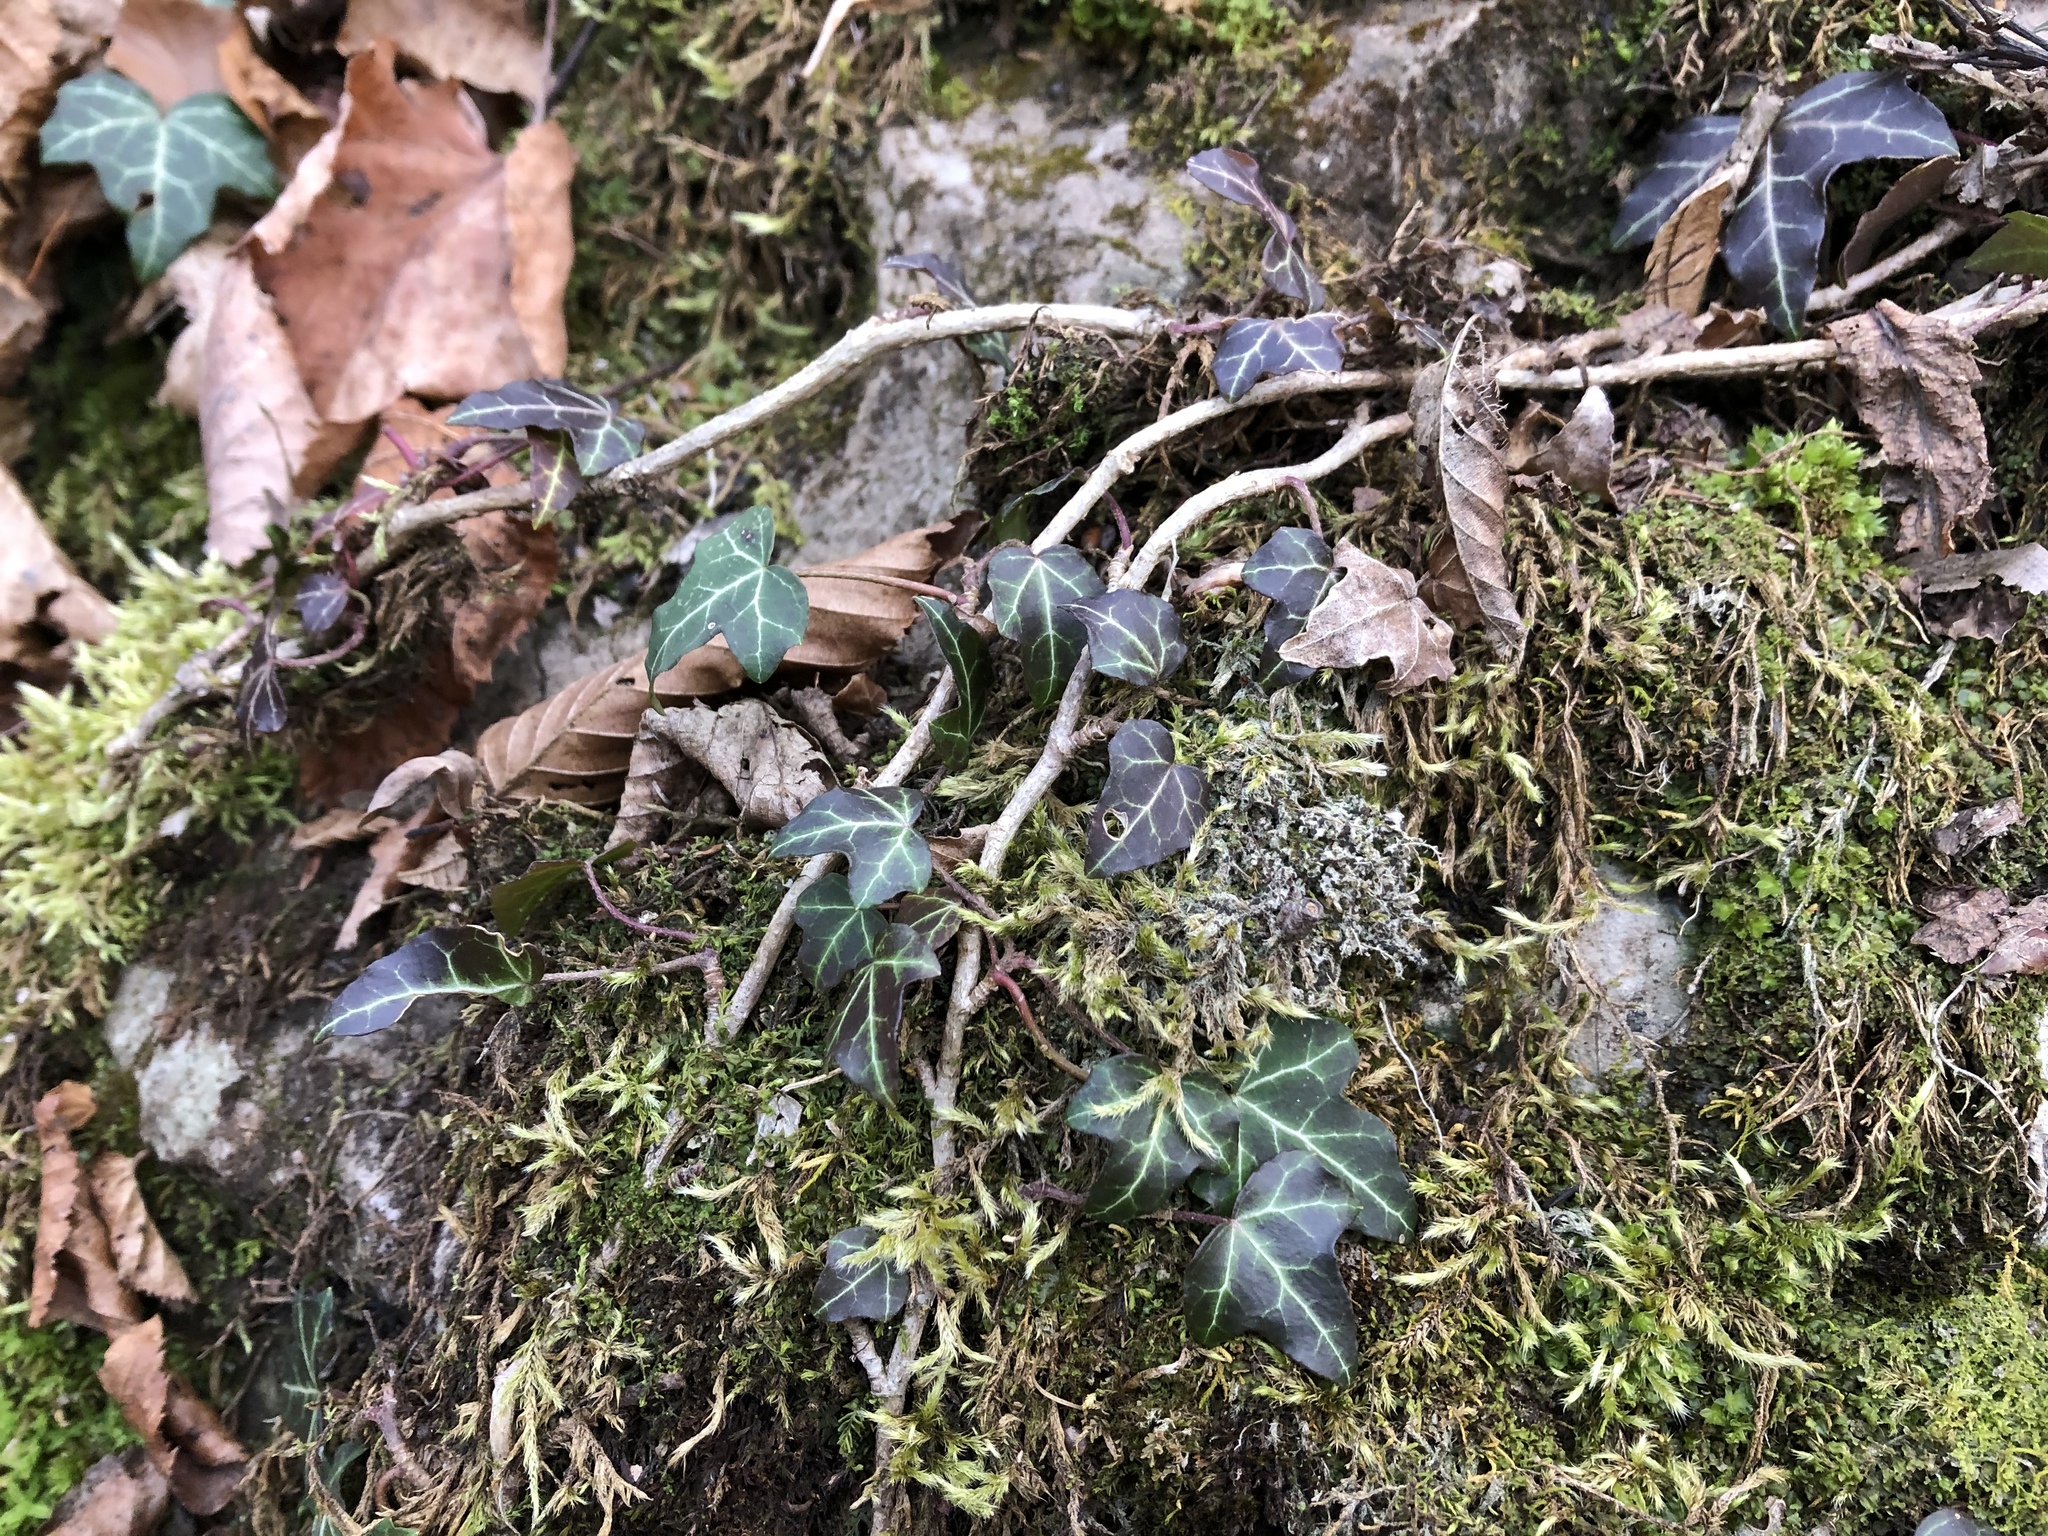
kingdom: Plantae
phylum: Tracheophyta
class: Magnoliopsida
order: Apiales
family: Araliaceae
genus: Hedera
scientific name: Hedera helix
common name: Ivy
